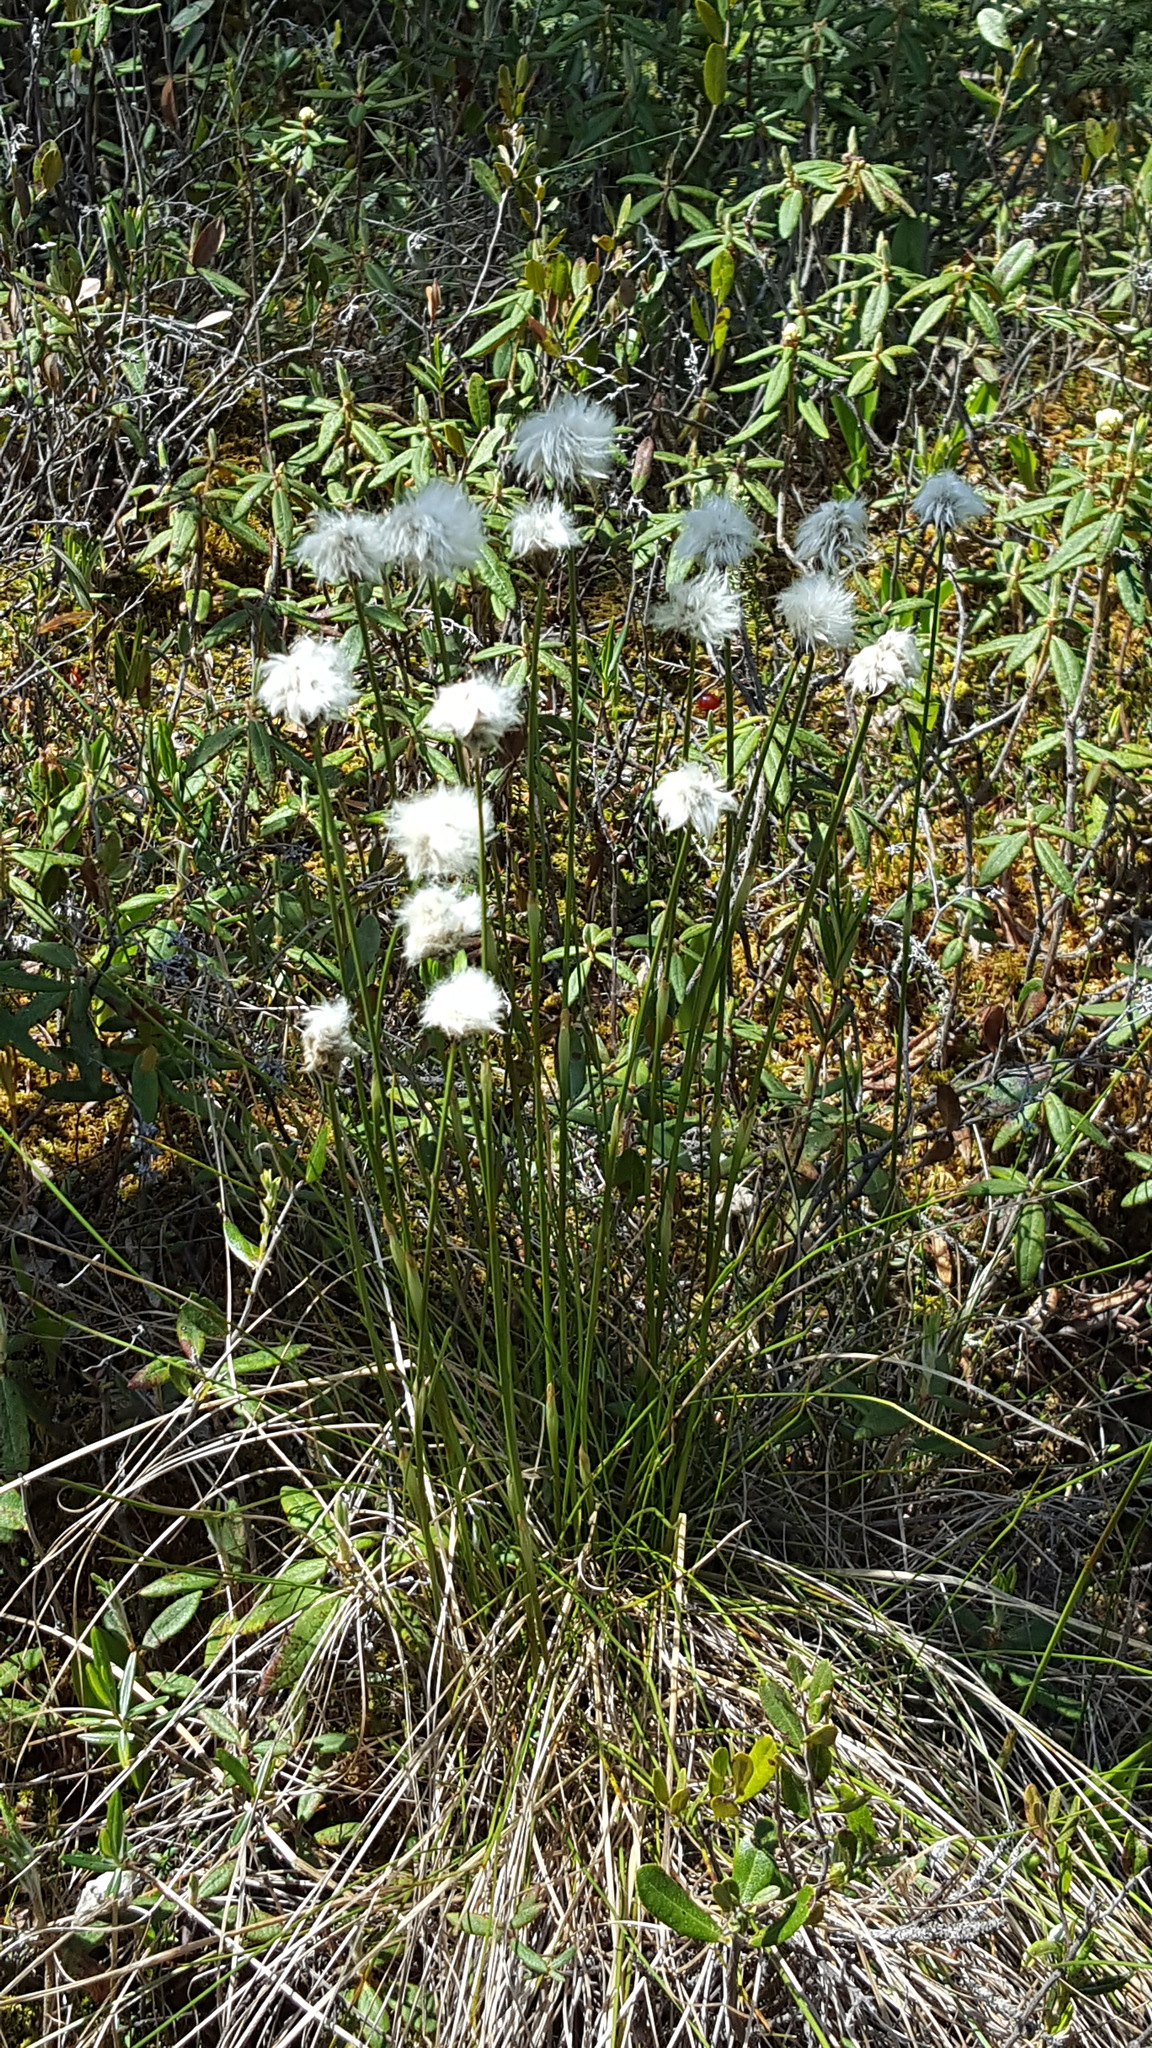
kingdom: Plantae
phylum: Tracheophyta
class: Liliopsida
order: Poales
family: Cyperaceae
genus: Eriophorum
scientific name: Eriophorum vaginatum
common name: Hare's-tail cottongrass
